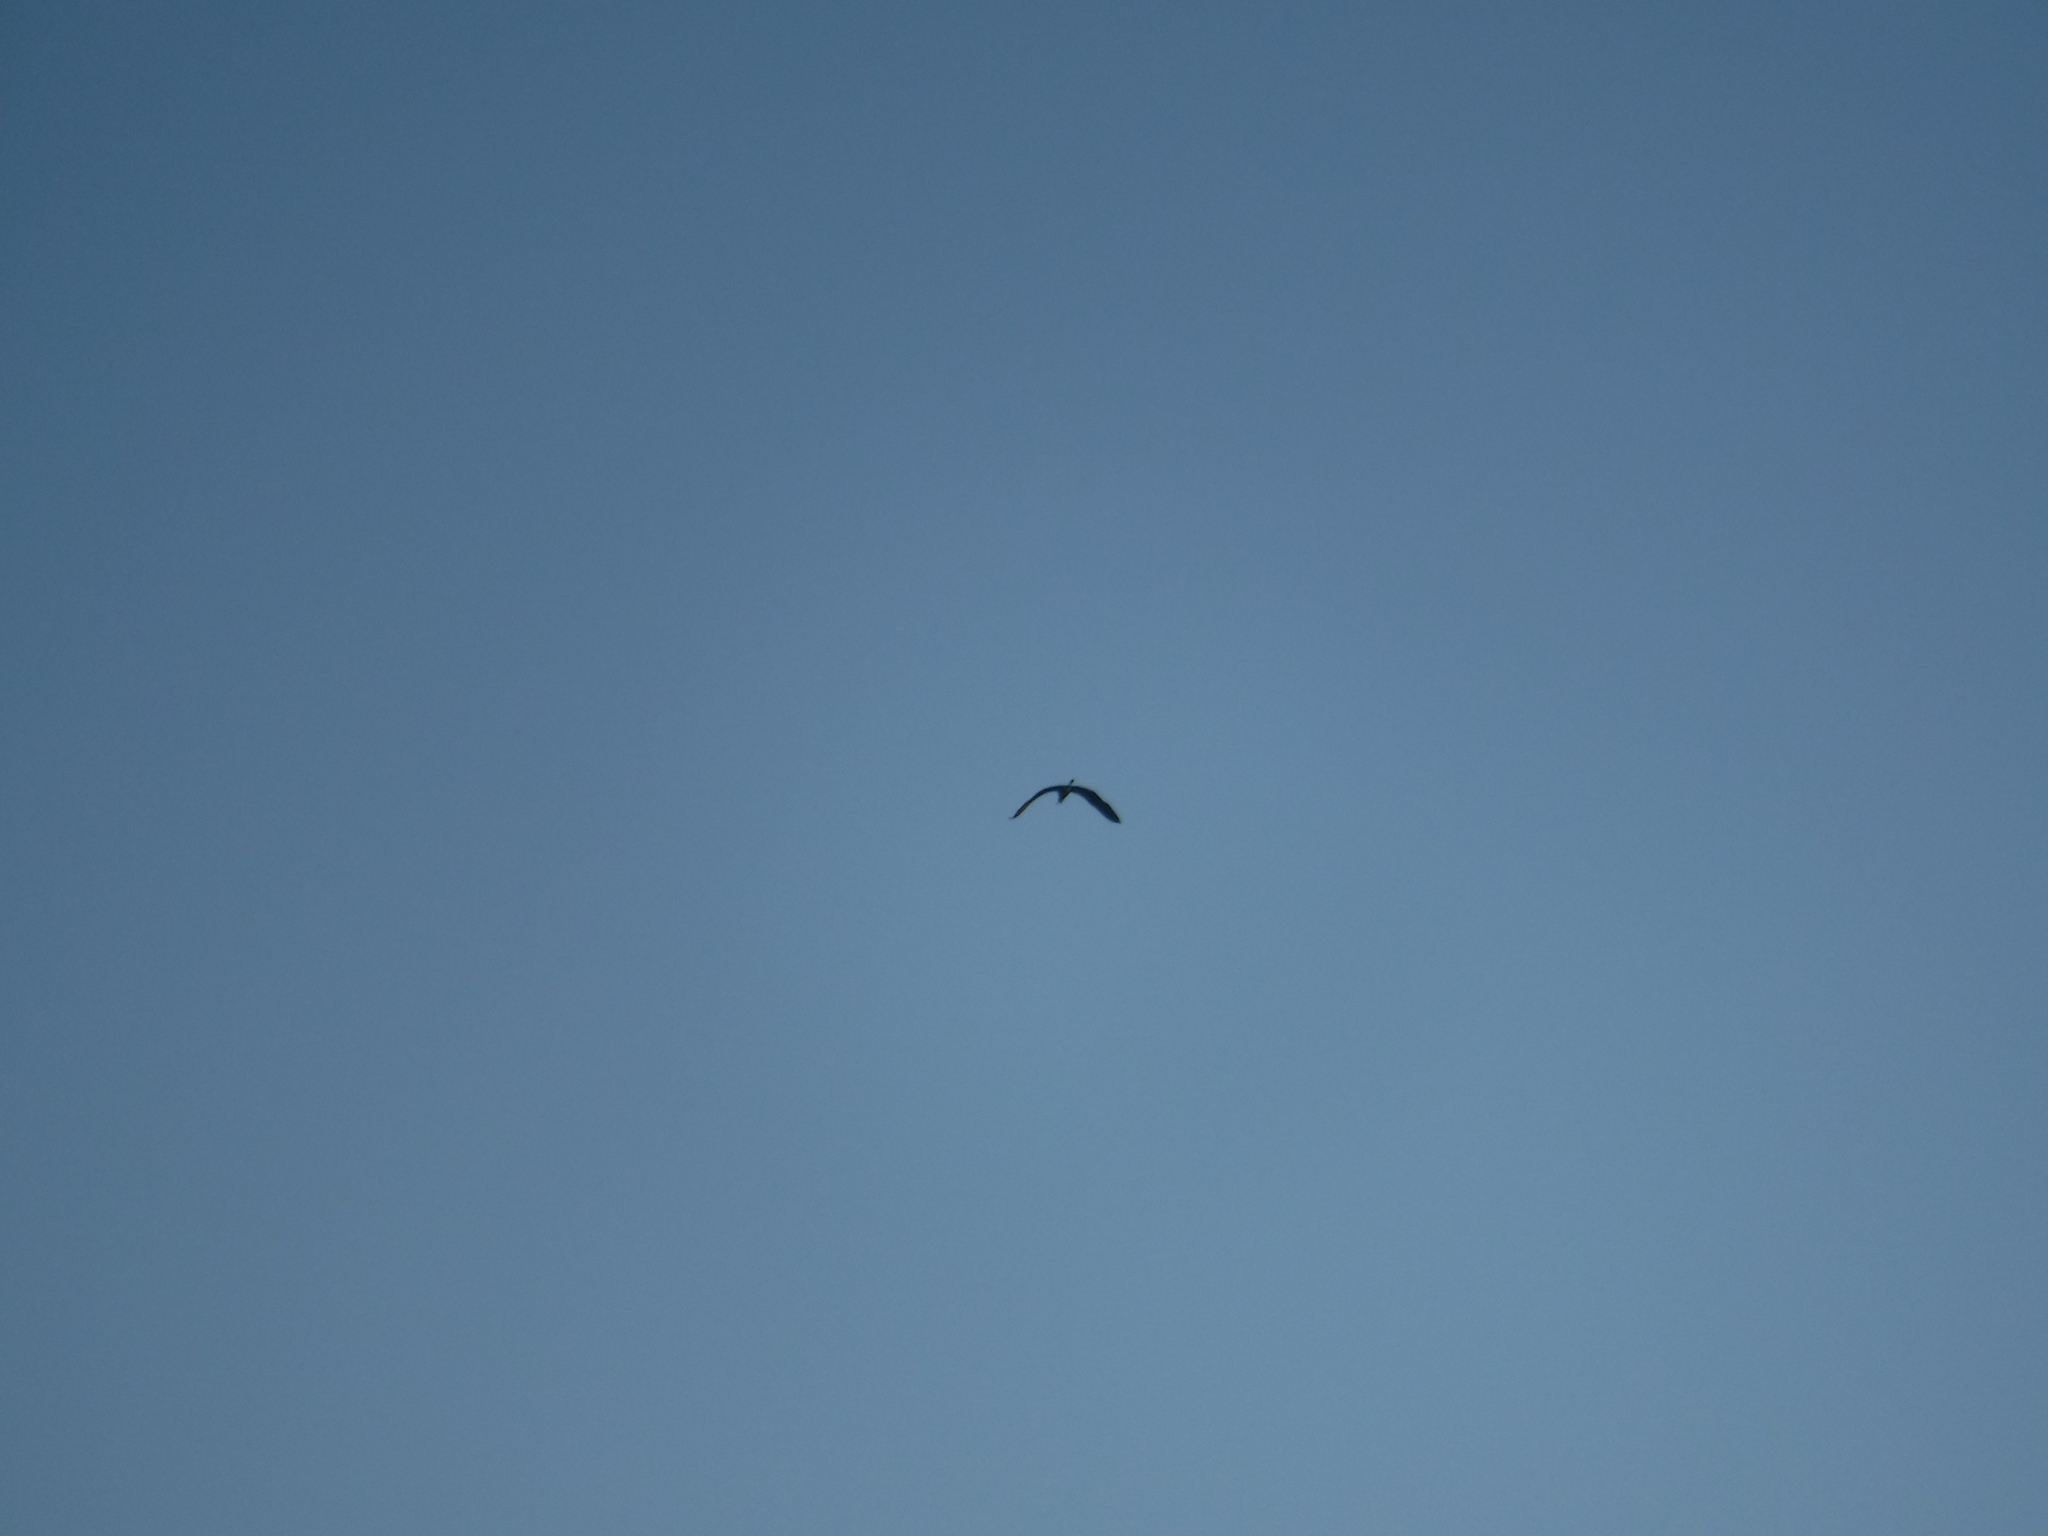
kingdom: Animalia
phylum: Chordata
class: Aves
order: Pelecaniformes
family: Ardeidae
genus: Ardea
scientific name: Ardea herodias
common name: Great blue heron
